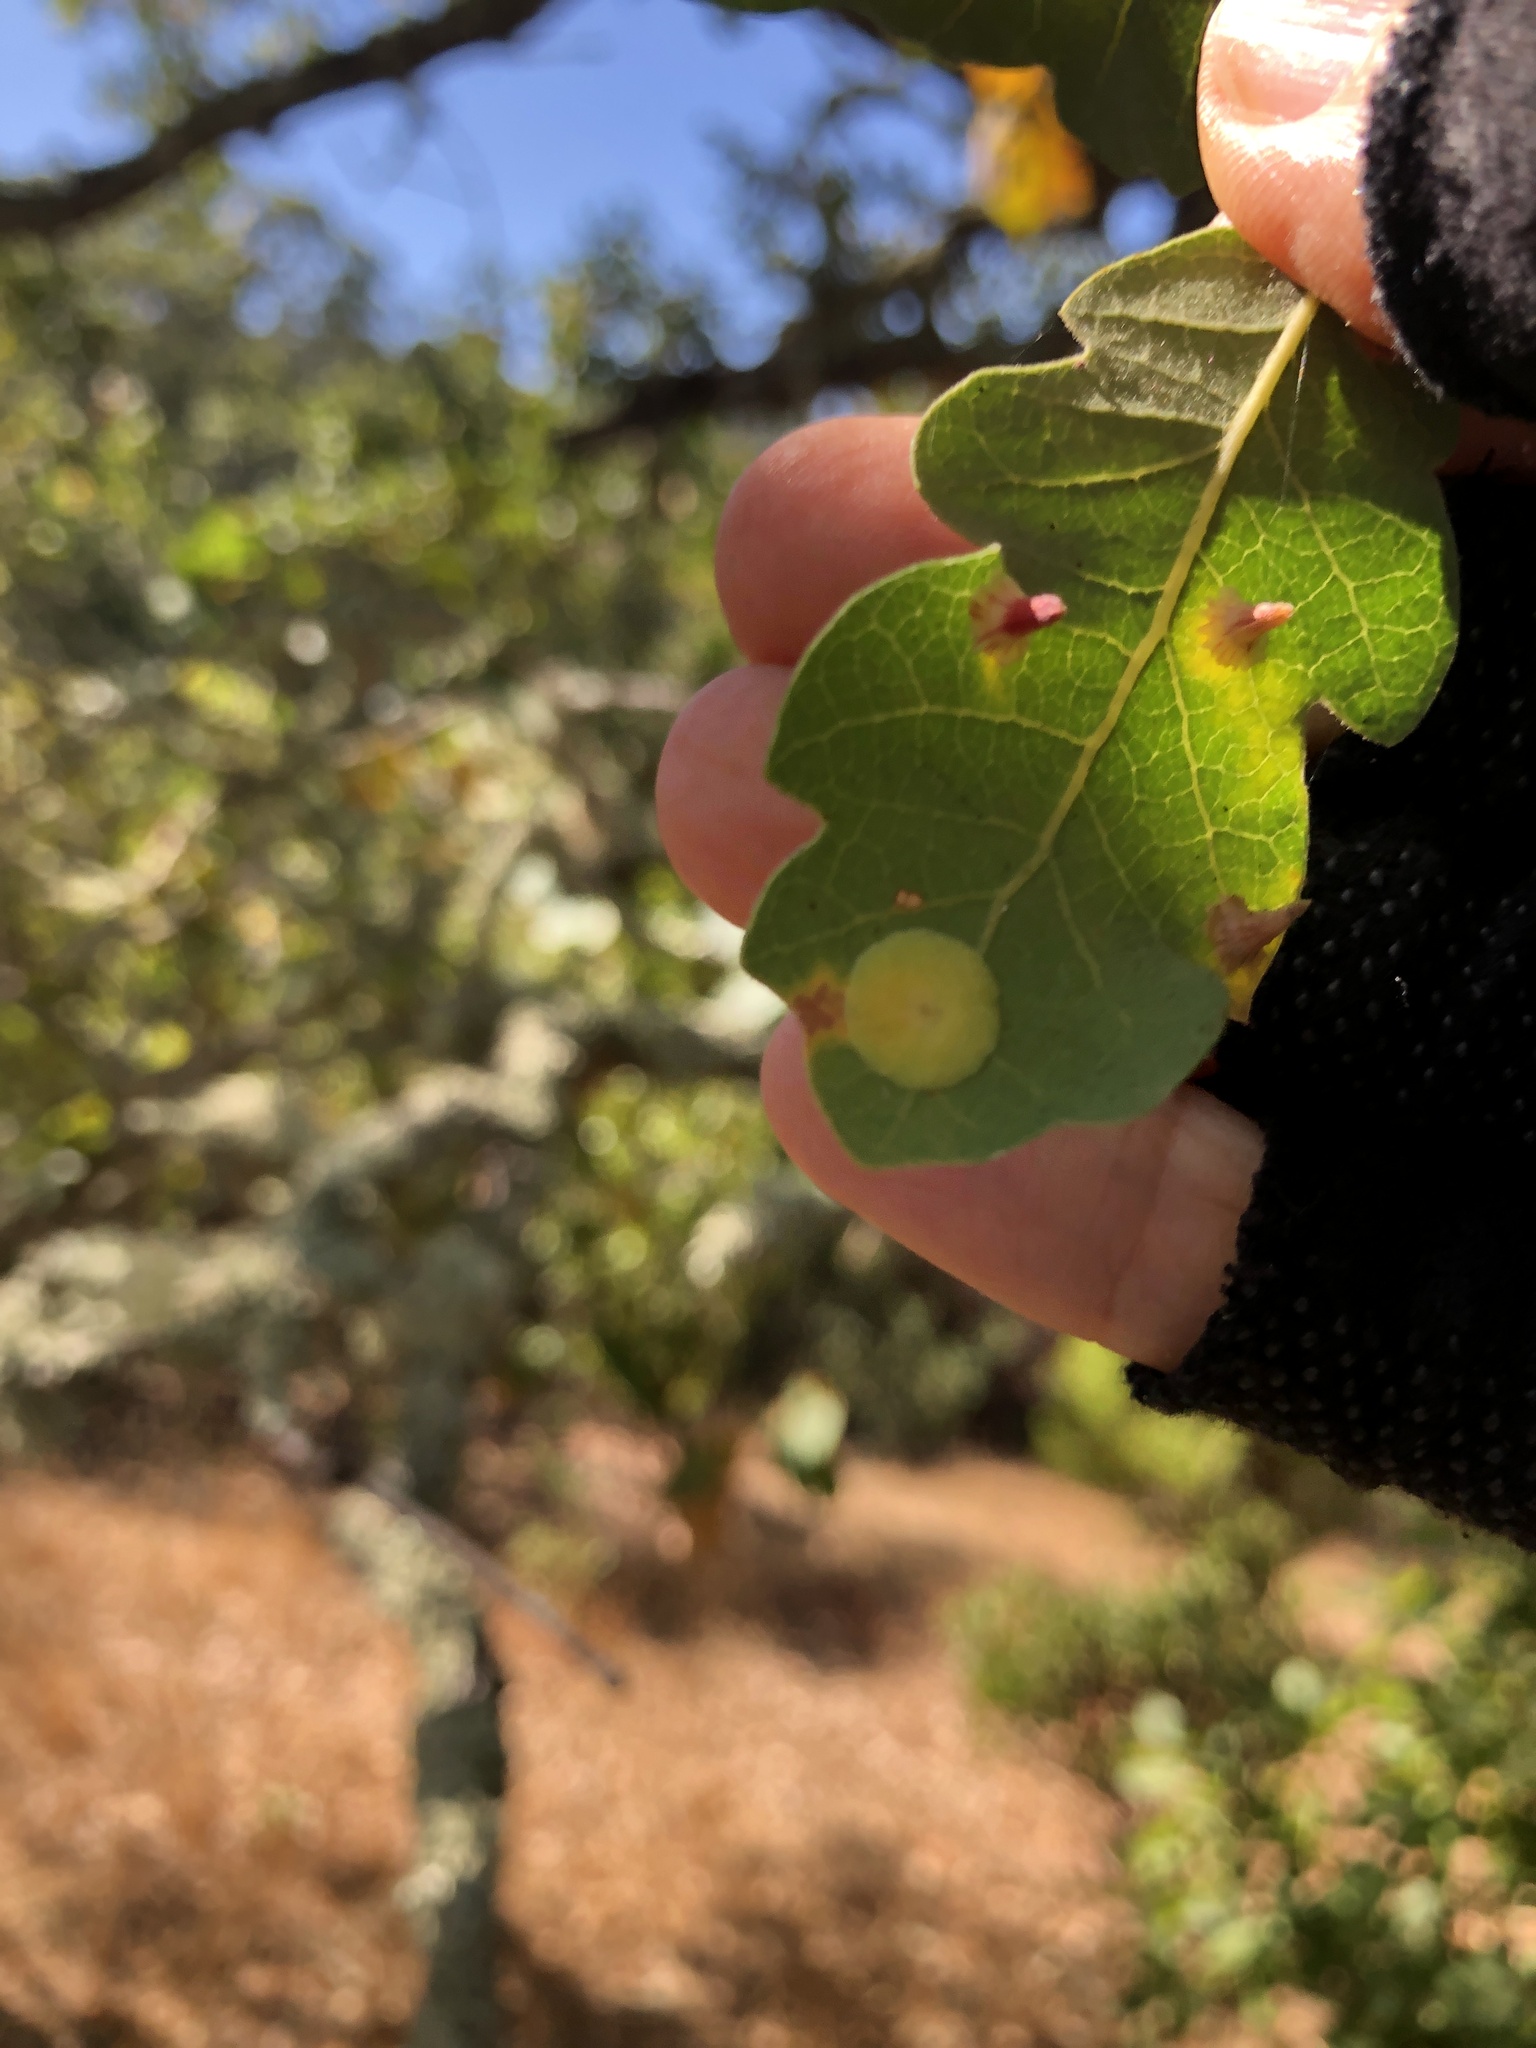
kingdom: Animalia
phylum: Arthropoda
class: Insecta
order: Hymenoptera
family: Cynipidae
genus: Andricus
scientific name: Andricus
